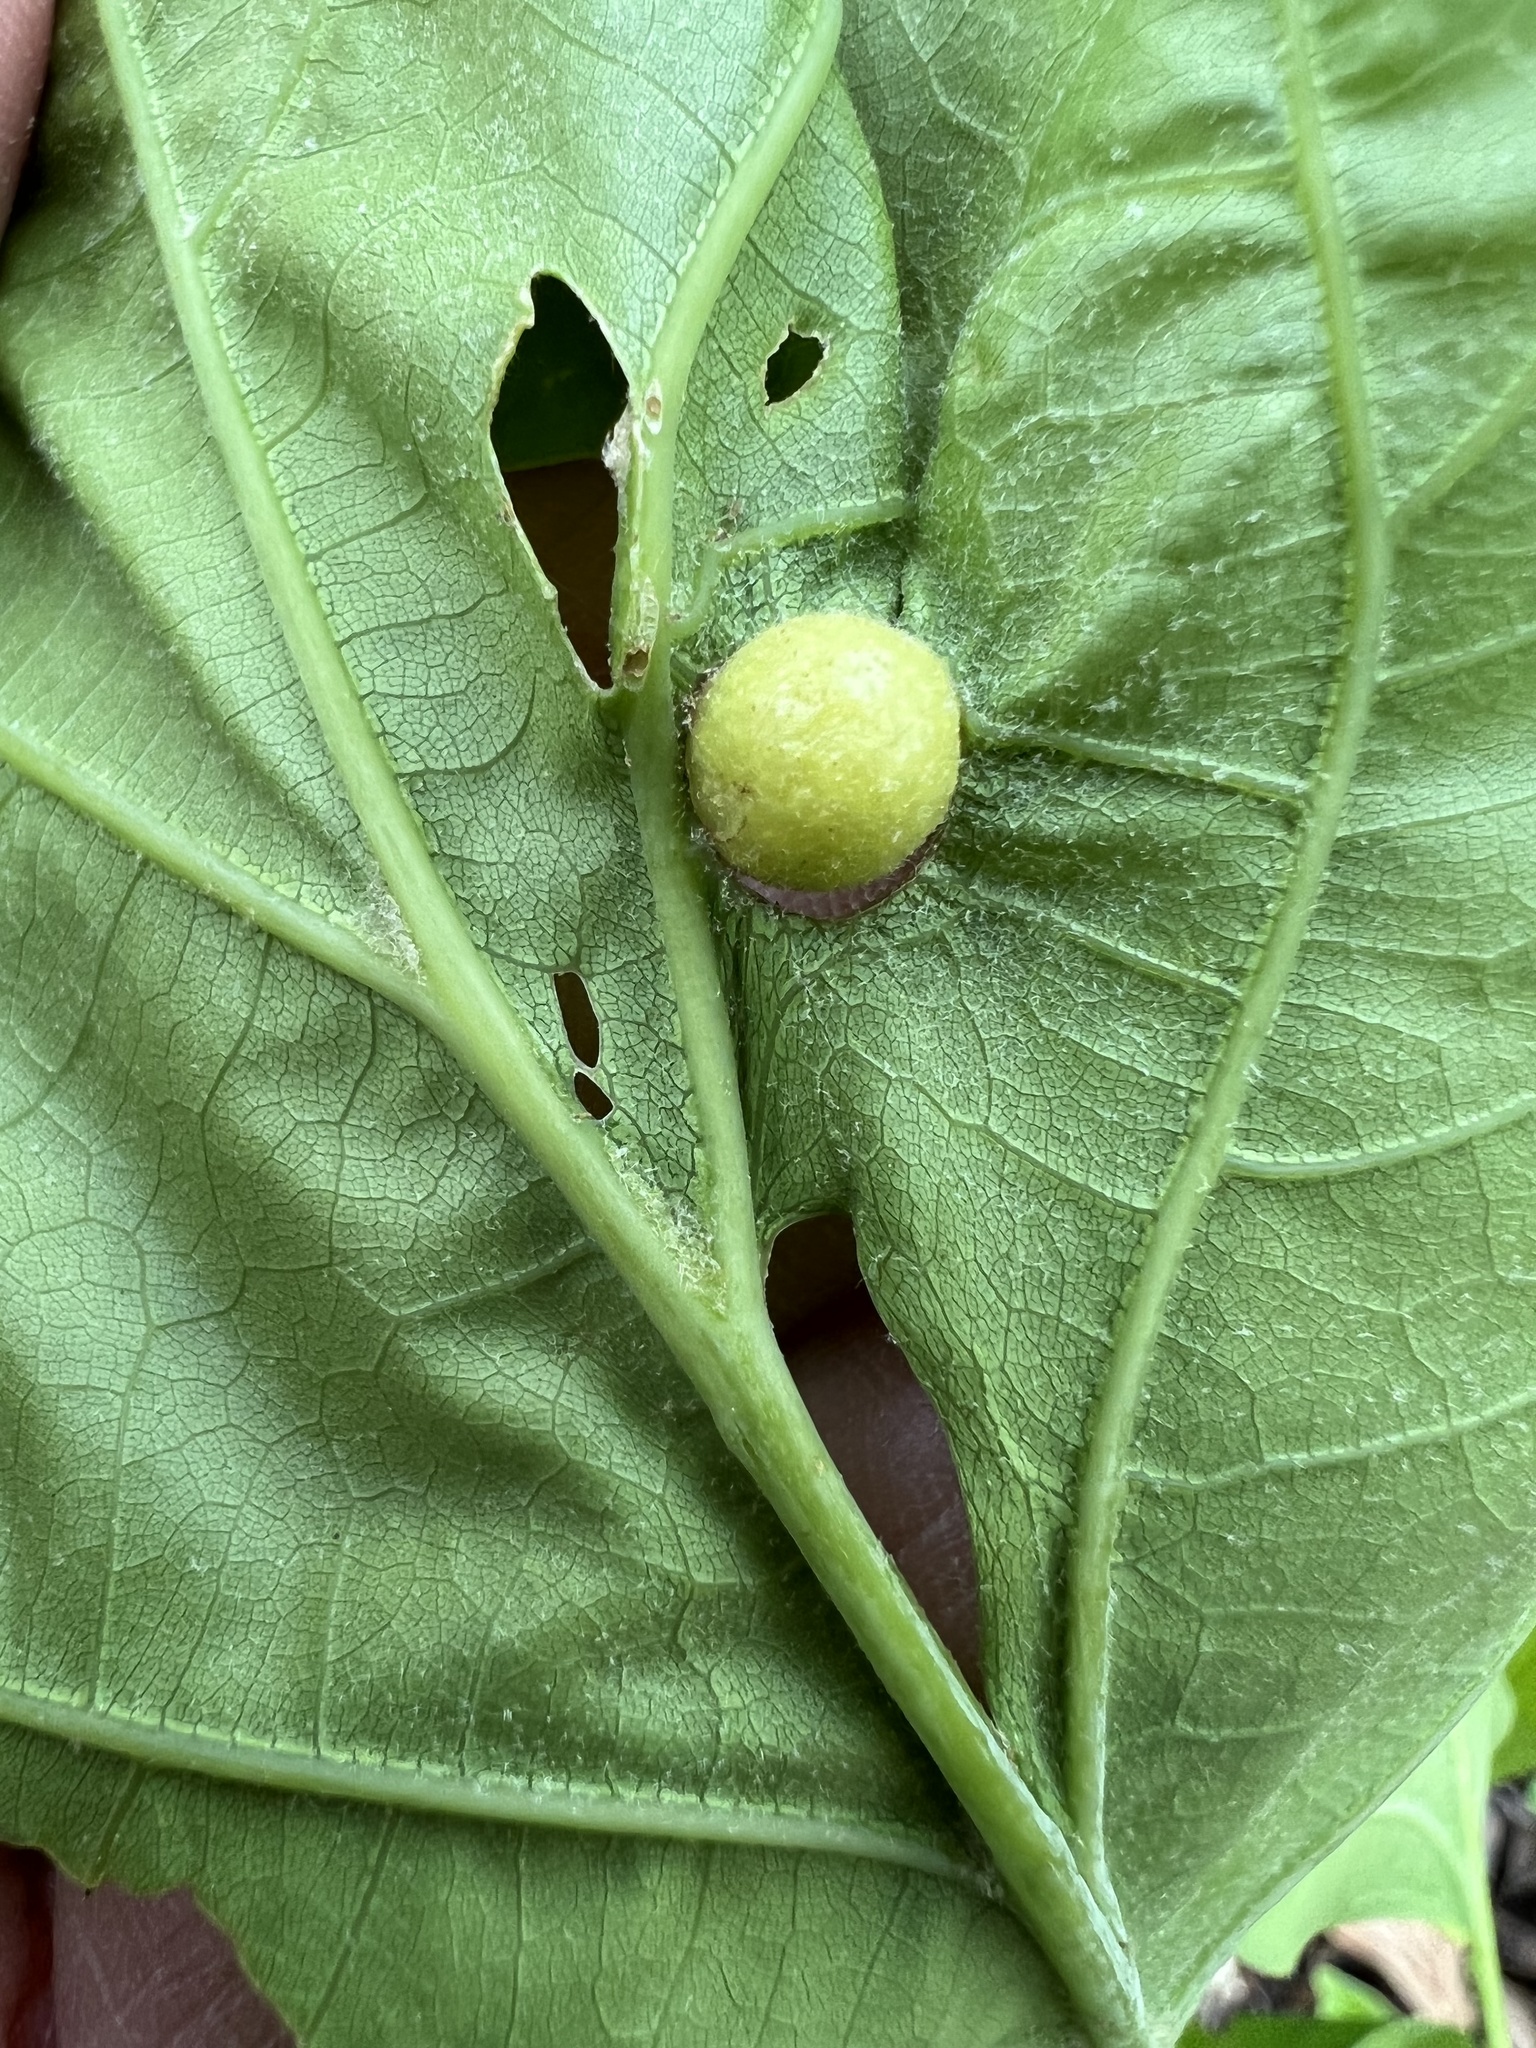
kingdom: Animalia
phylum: Arthropoda
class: Insecta
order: Hymenoptera
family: Cynipidae
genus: Amphibolips
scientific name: Amphibolips
